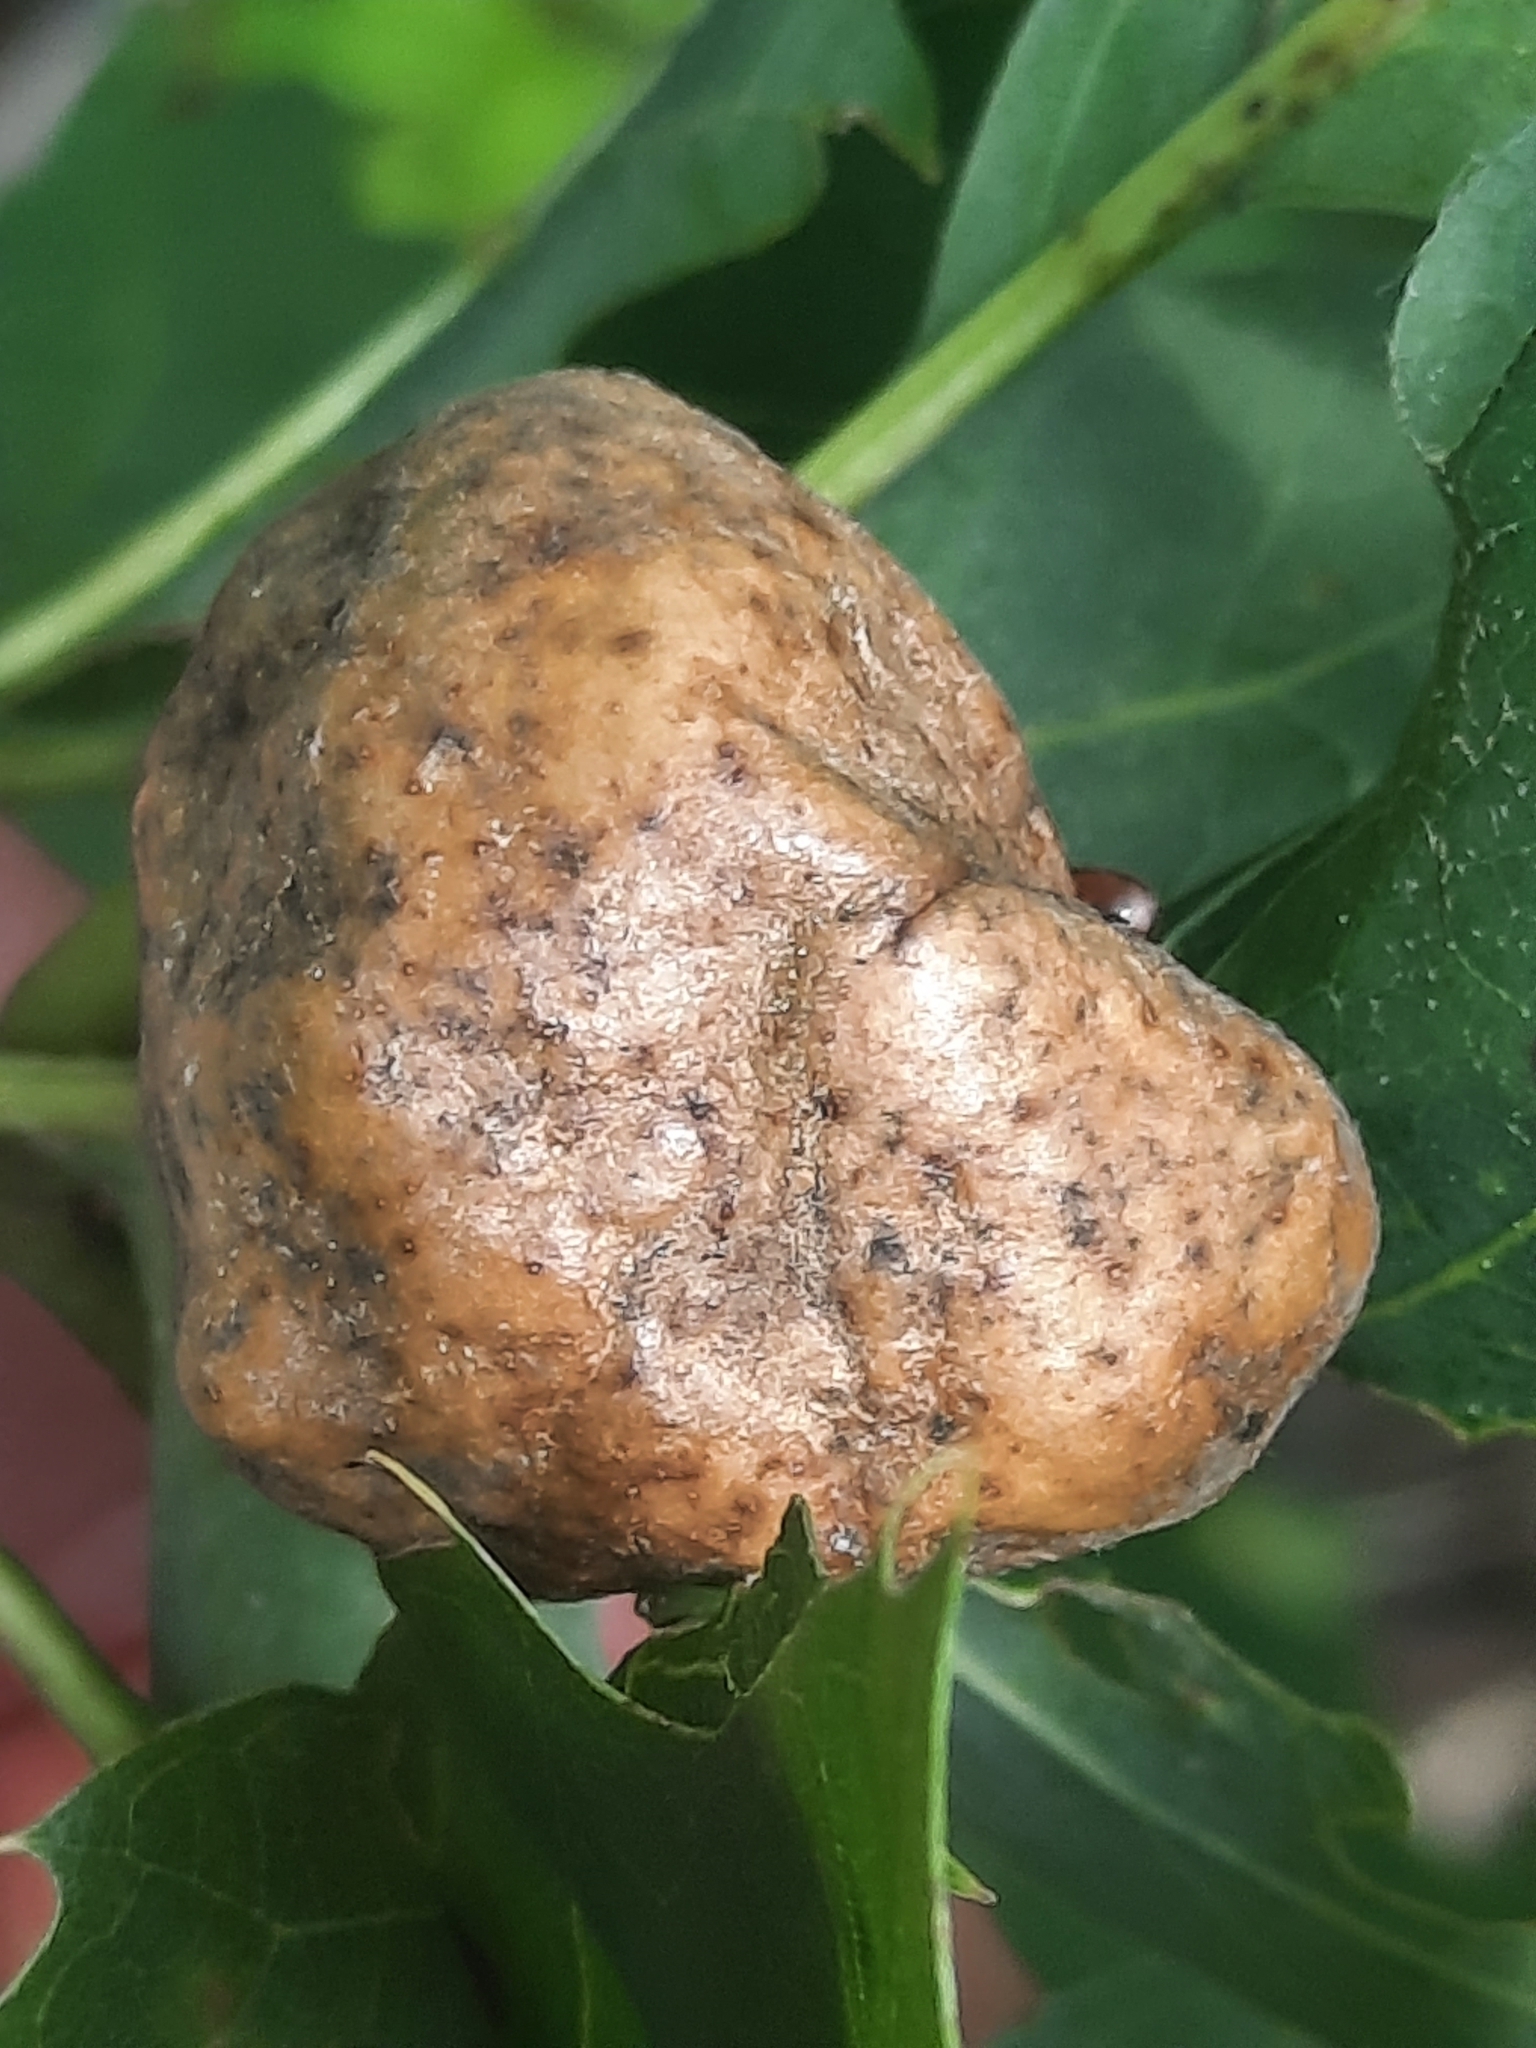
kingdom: Animalia
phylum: Arthropoda
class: Insecta
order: Hymenoptera
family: Cynipidae
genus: Amphibolips
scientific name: Amphibolips
